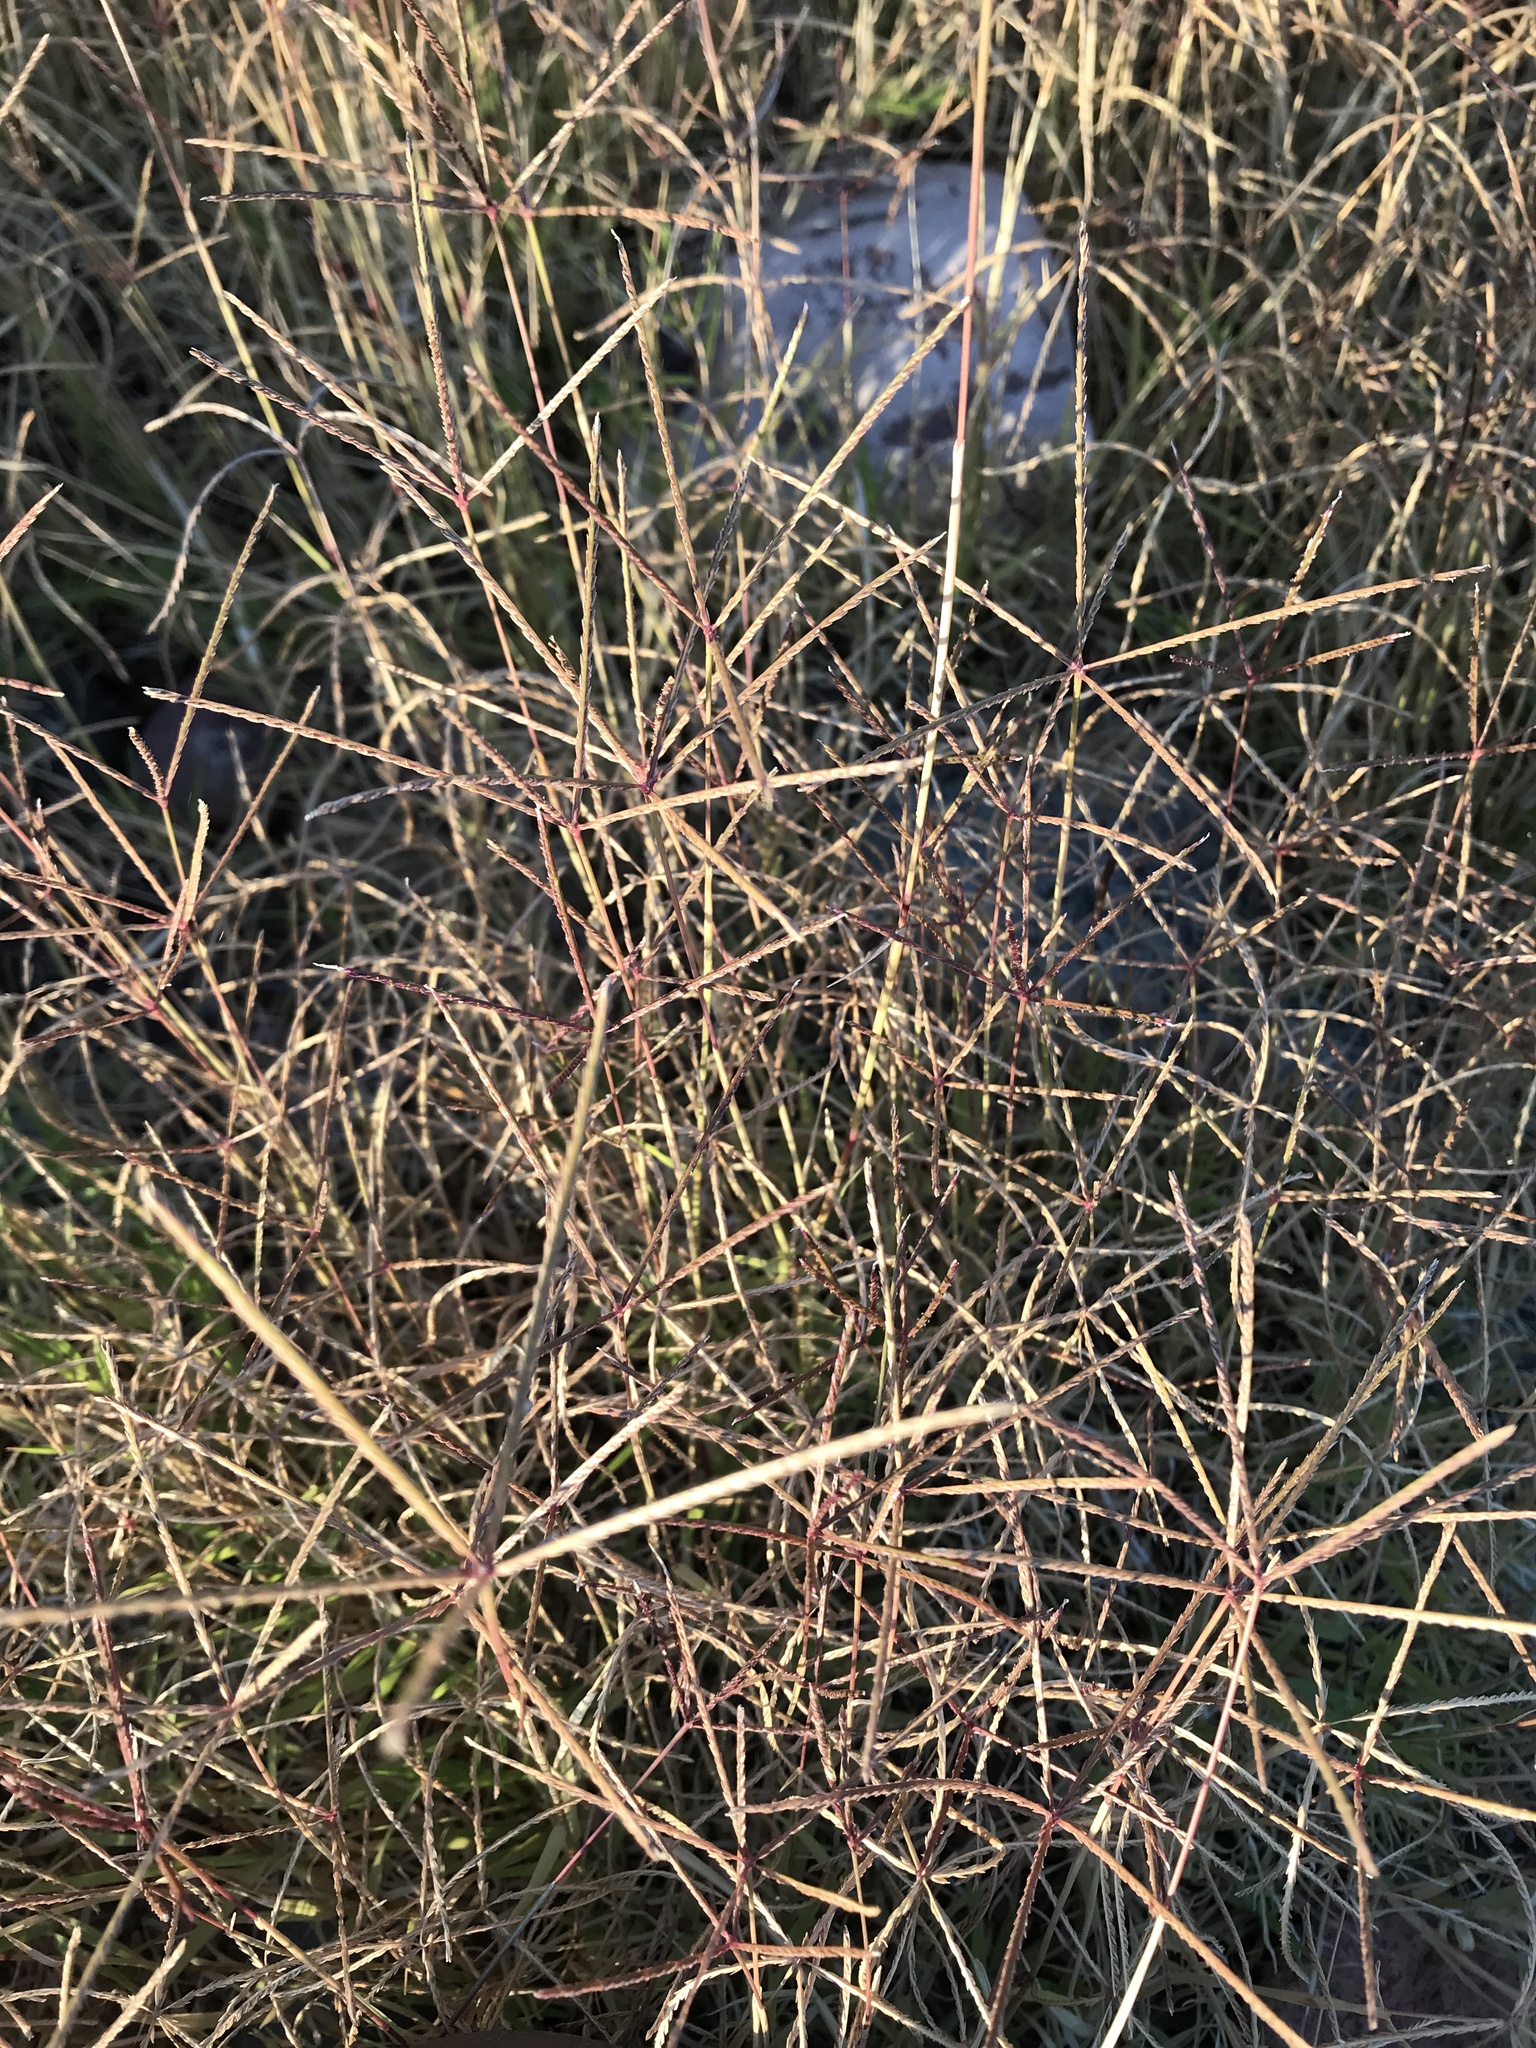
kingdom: Plantae
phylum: Tracheophyta
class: Liliopsida
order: Poales
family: Poaceae
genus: Cynodon
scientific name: Cynodon dactylon
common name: Bermuda grass
